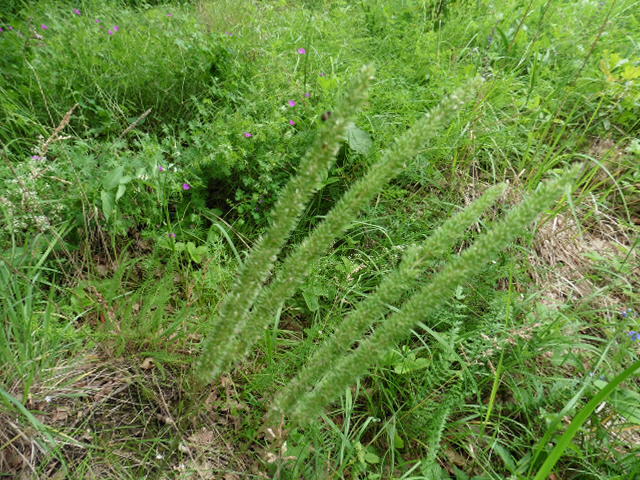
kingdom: Plantae
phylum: Tracheophyta
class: Liliopsida
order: Poales
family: Poaceae
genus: Phleum
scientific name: Phleum phleoides
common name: Purple-stem cat's-tail
